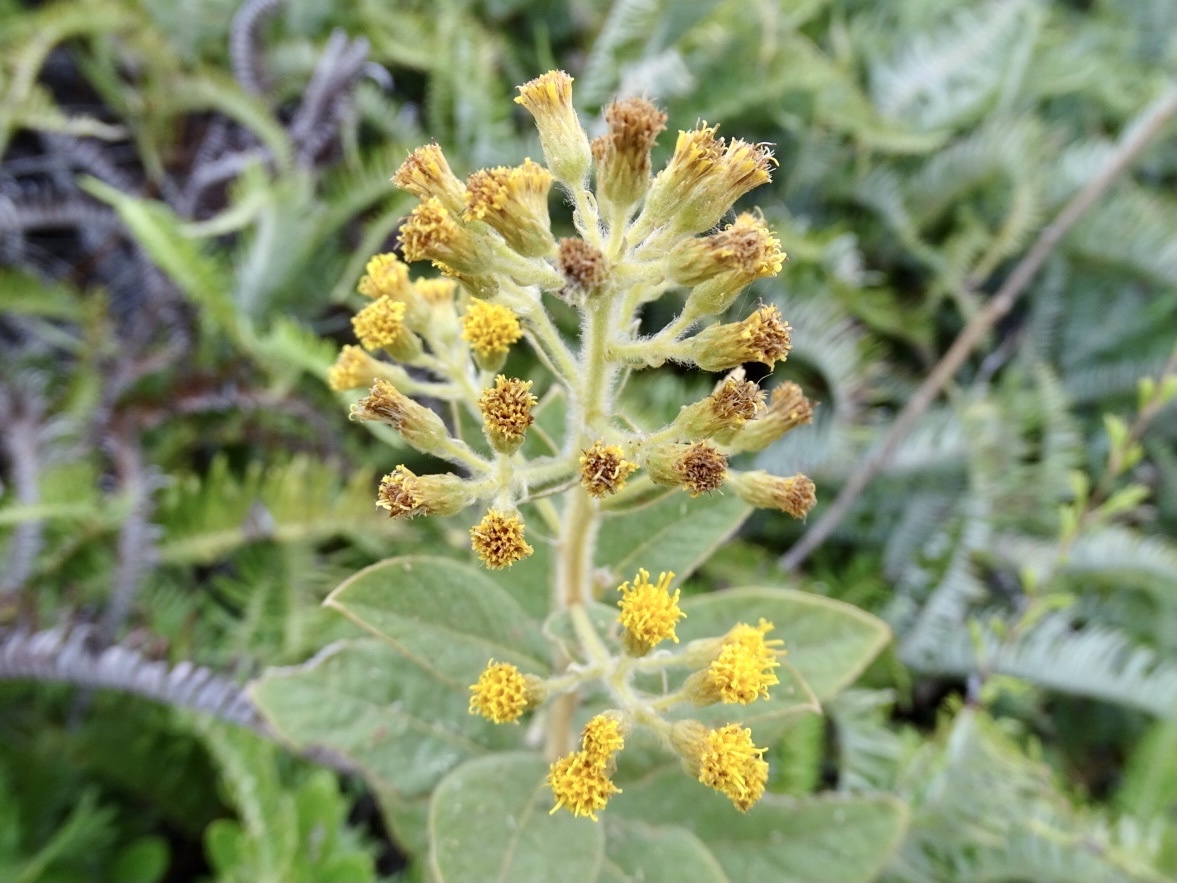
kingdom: Plantae
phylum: Tracheophyta
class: Magnoliopsida
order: Asterales
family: Asteraceae
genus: Duhaldea
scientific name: Duhaldea cappa
